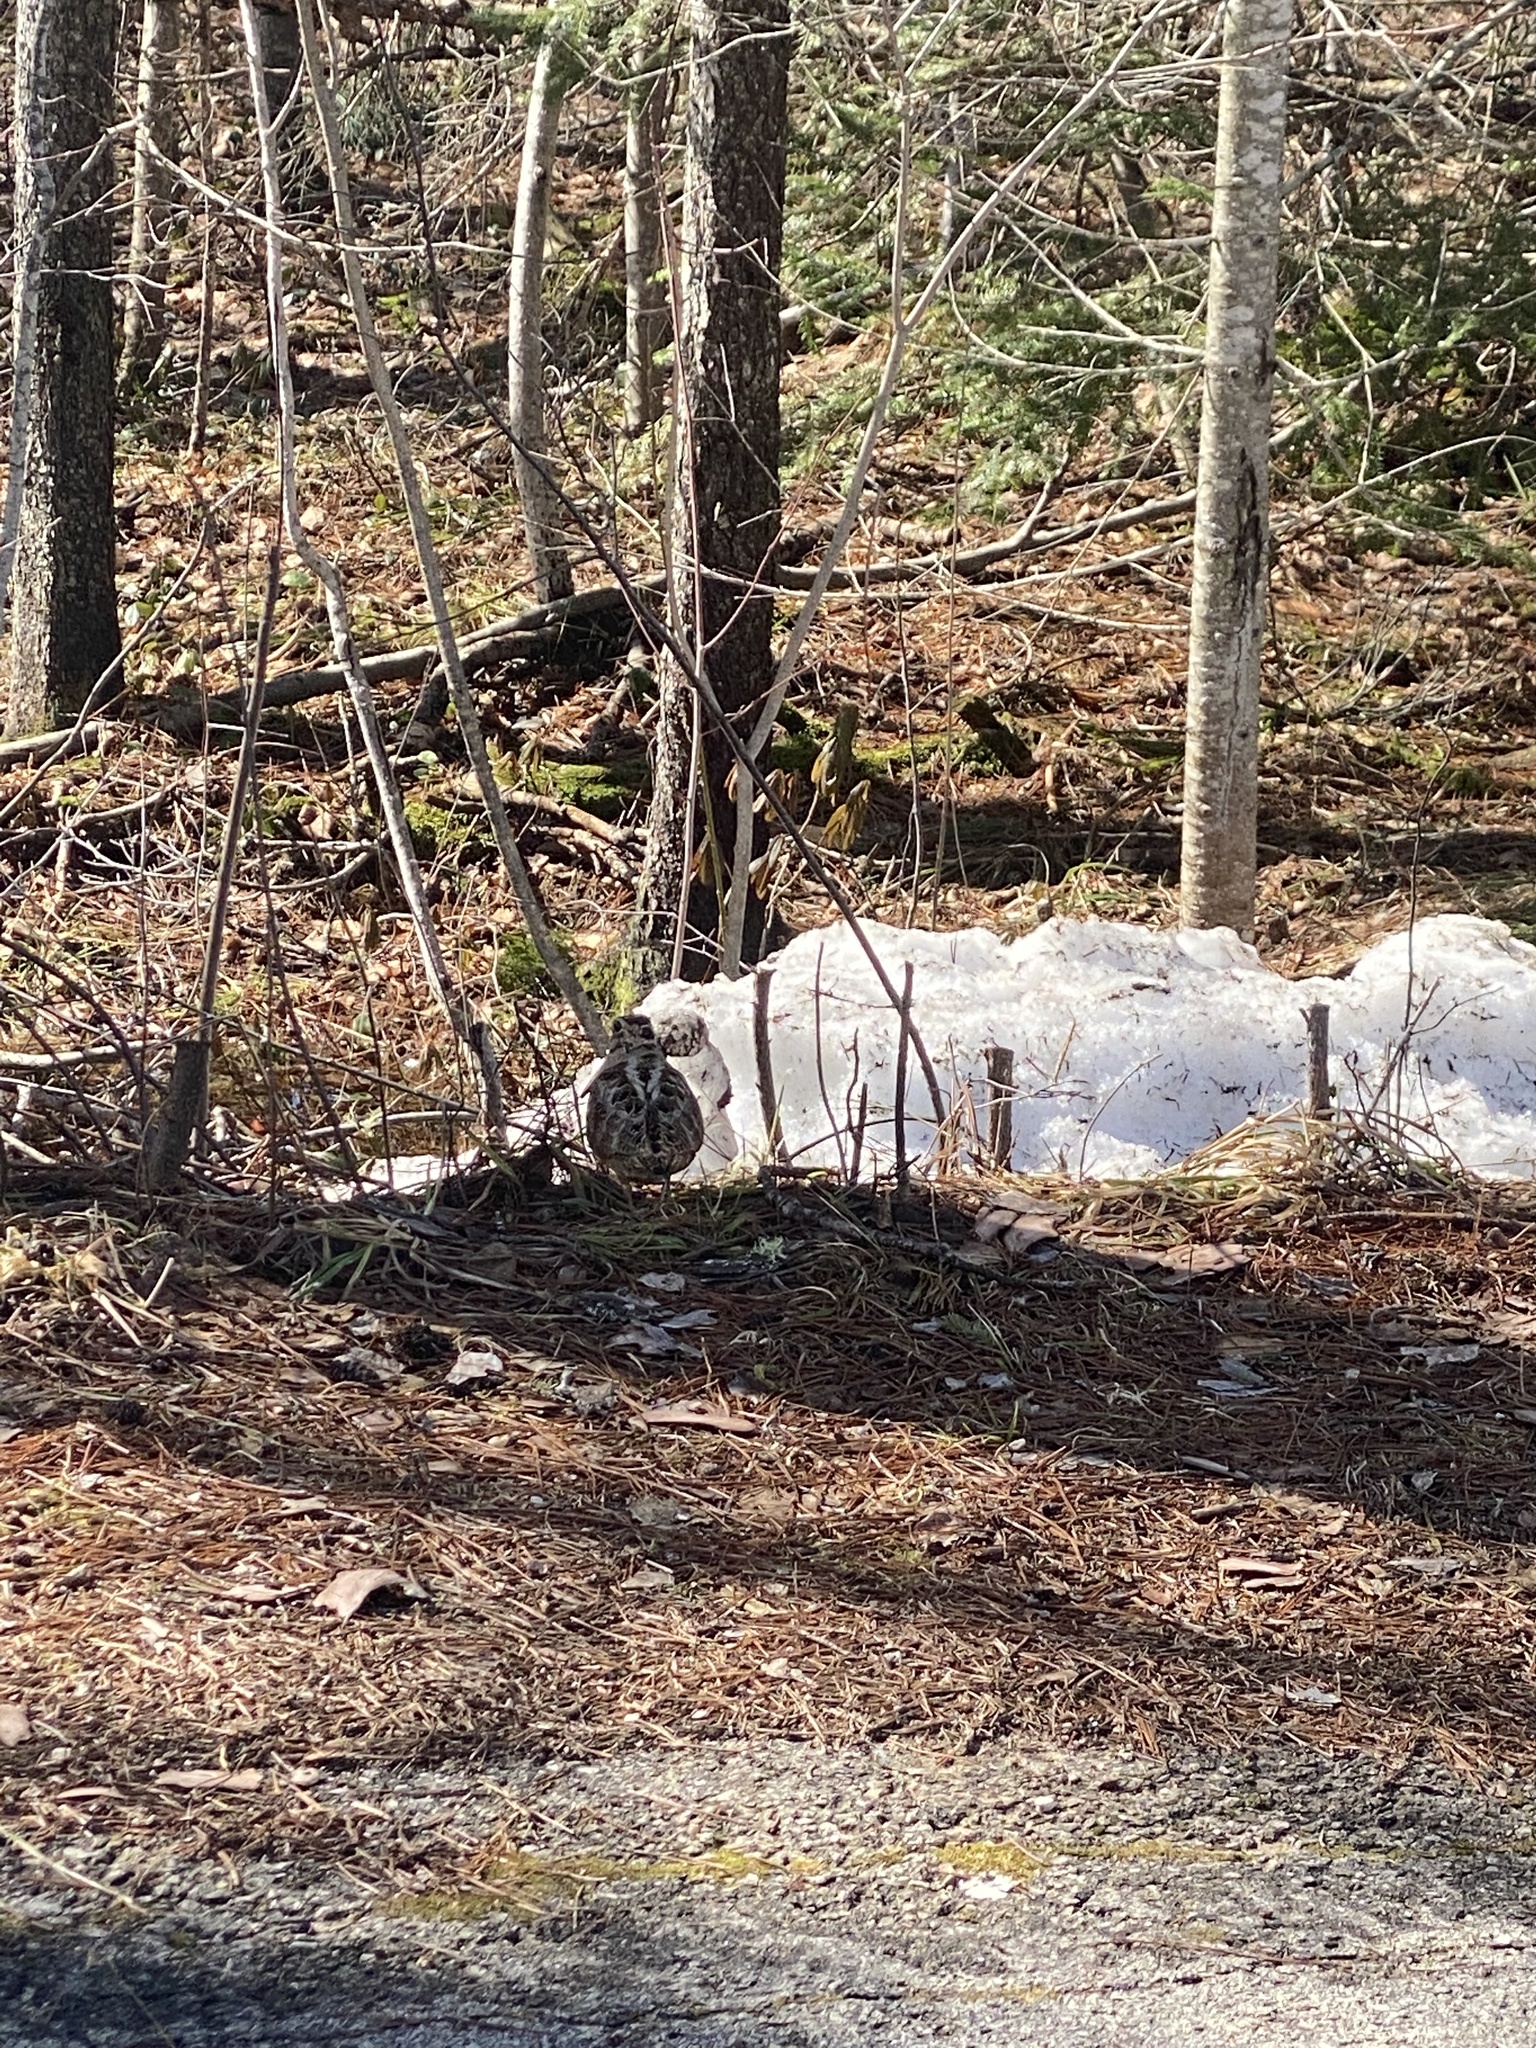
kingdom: Animalia
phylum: Chordata
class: Aves
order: Charadriiformes
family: Scolopacidae
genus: Scolopax
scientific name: Scolopax minor
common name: American woodcock
